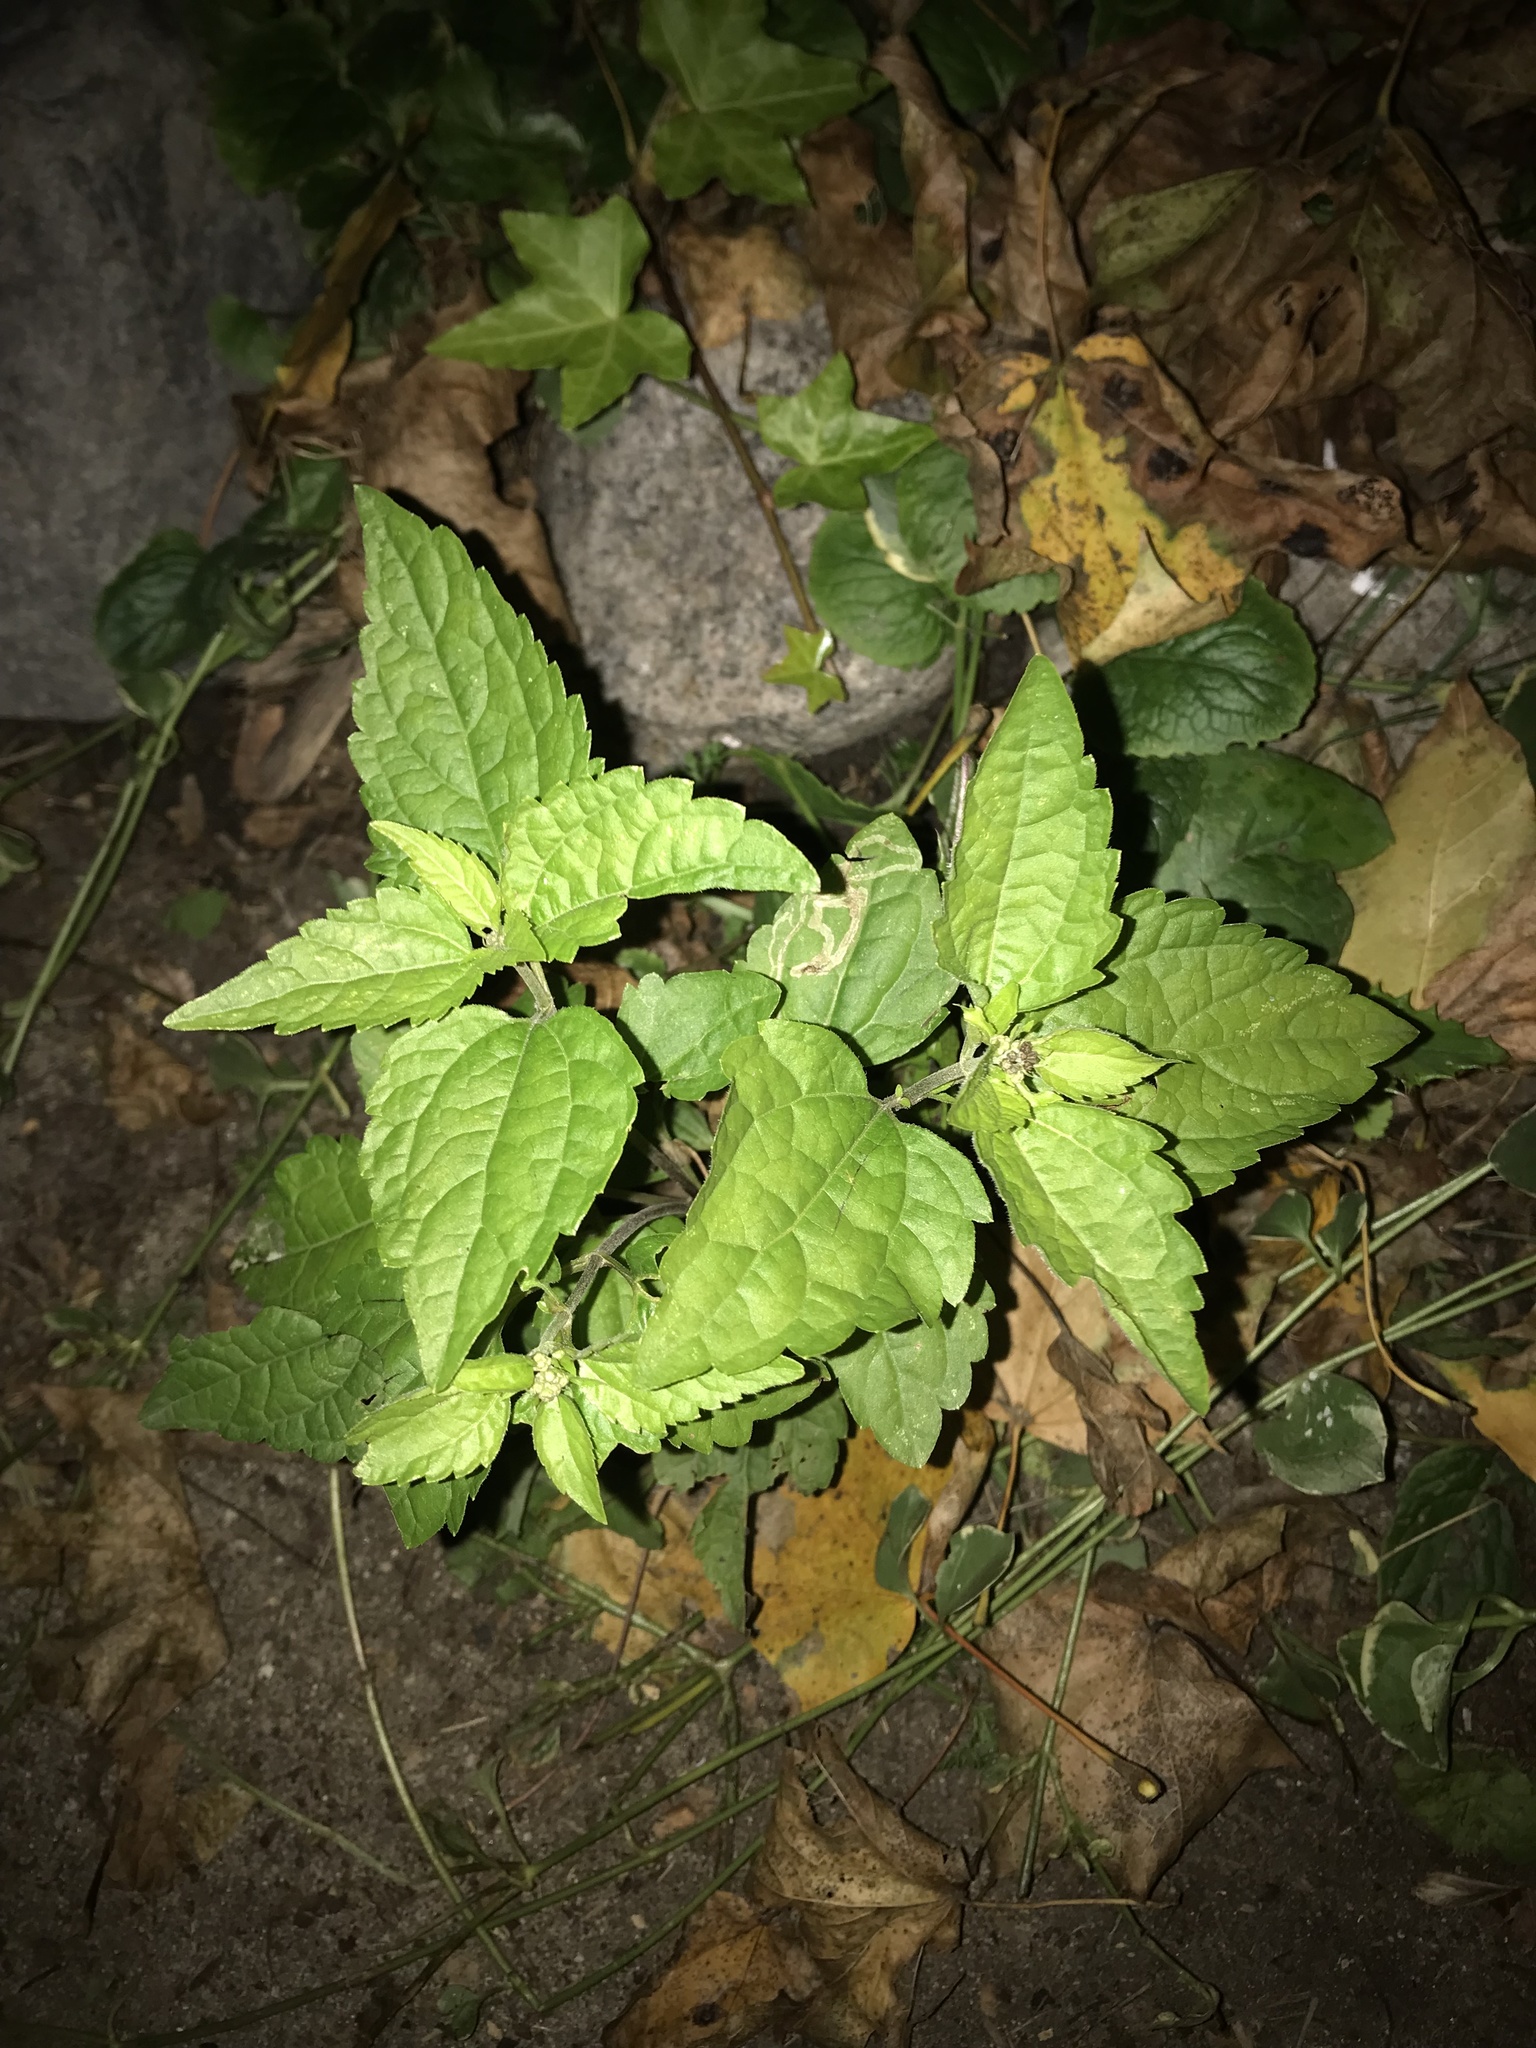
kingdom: Plantae
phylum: Tracheophyta
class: Magnoliopsida
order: Rosales
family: Urticaceae
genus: Pilea
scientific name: Pilea pumila
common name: Clearweed
